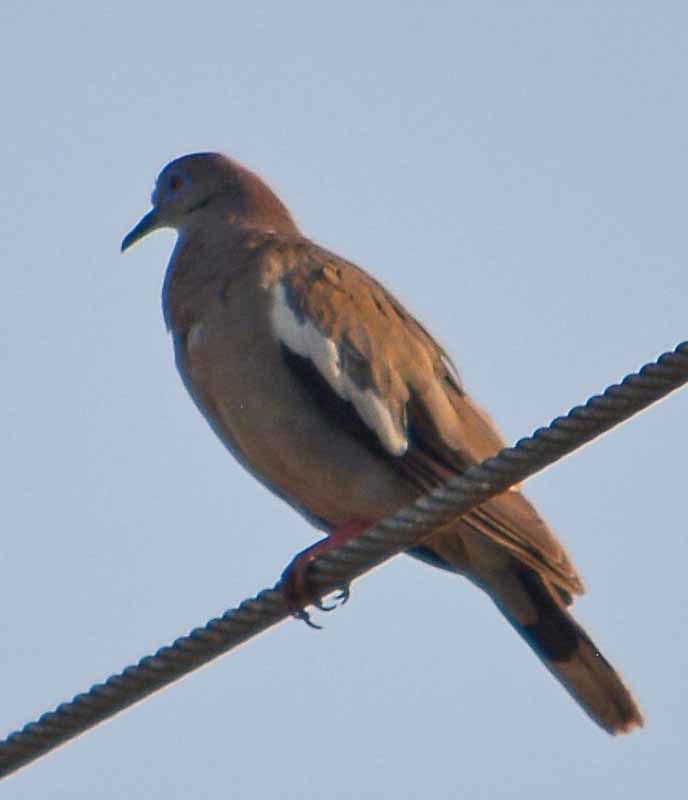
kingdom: Animalia
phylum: Chordata
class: Aves
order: Columbiformes
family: Columbidae
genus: Zenaida
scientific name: Zenaida asiatica
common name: White-winged dove
